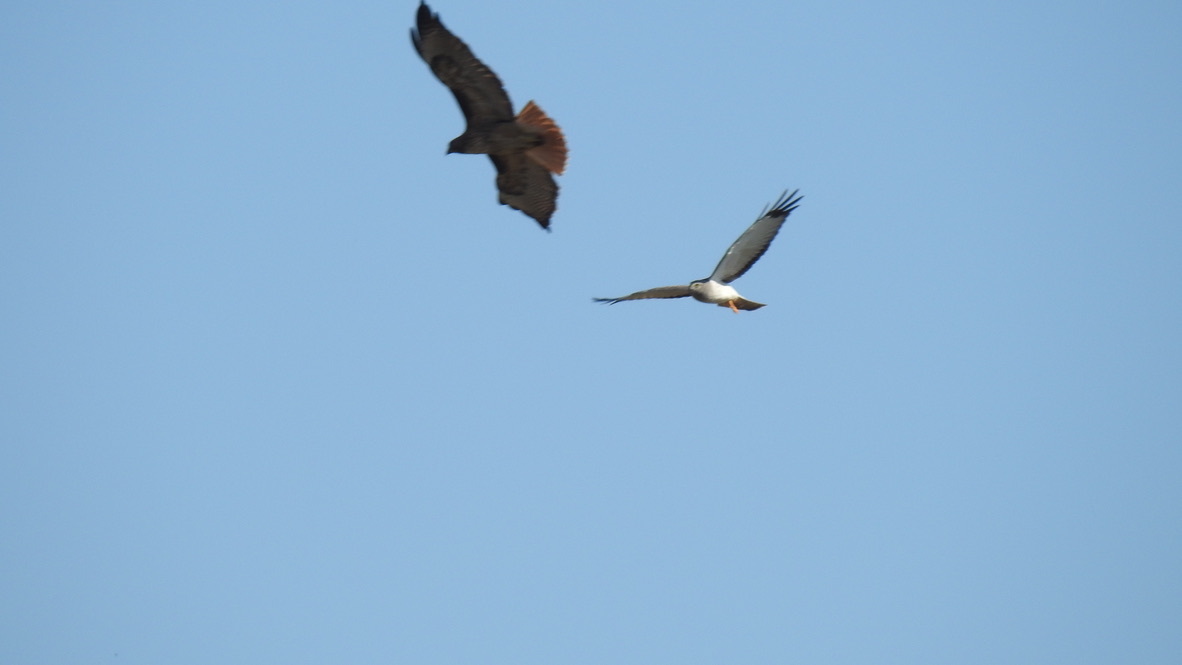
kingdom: Animalia
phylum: Chordata
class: Aves
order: Accipitriformes
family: Accipitridae
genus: Circus
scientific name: Circus cyaneus
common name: Hen harrier
